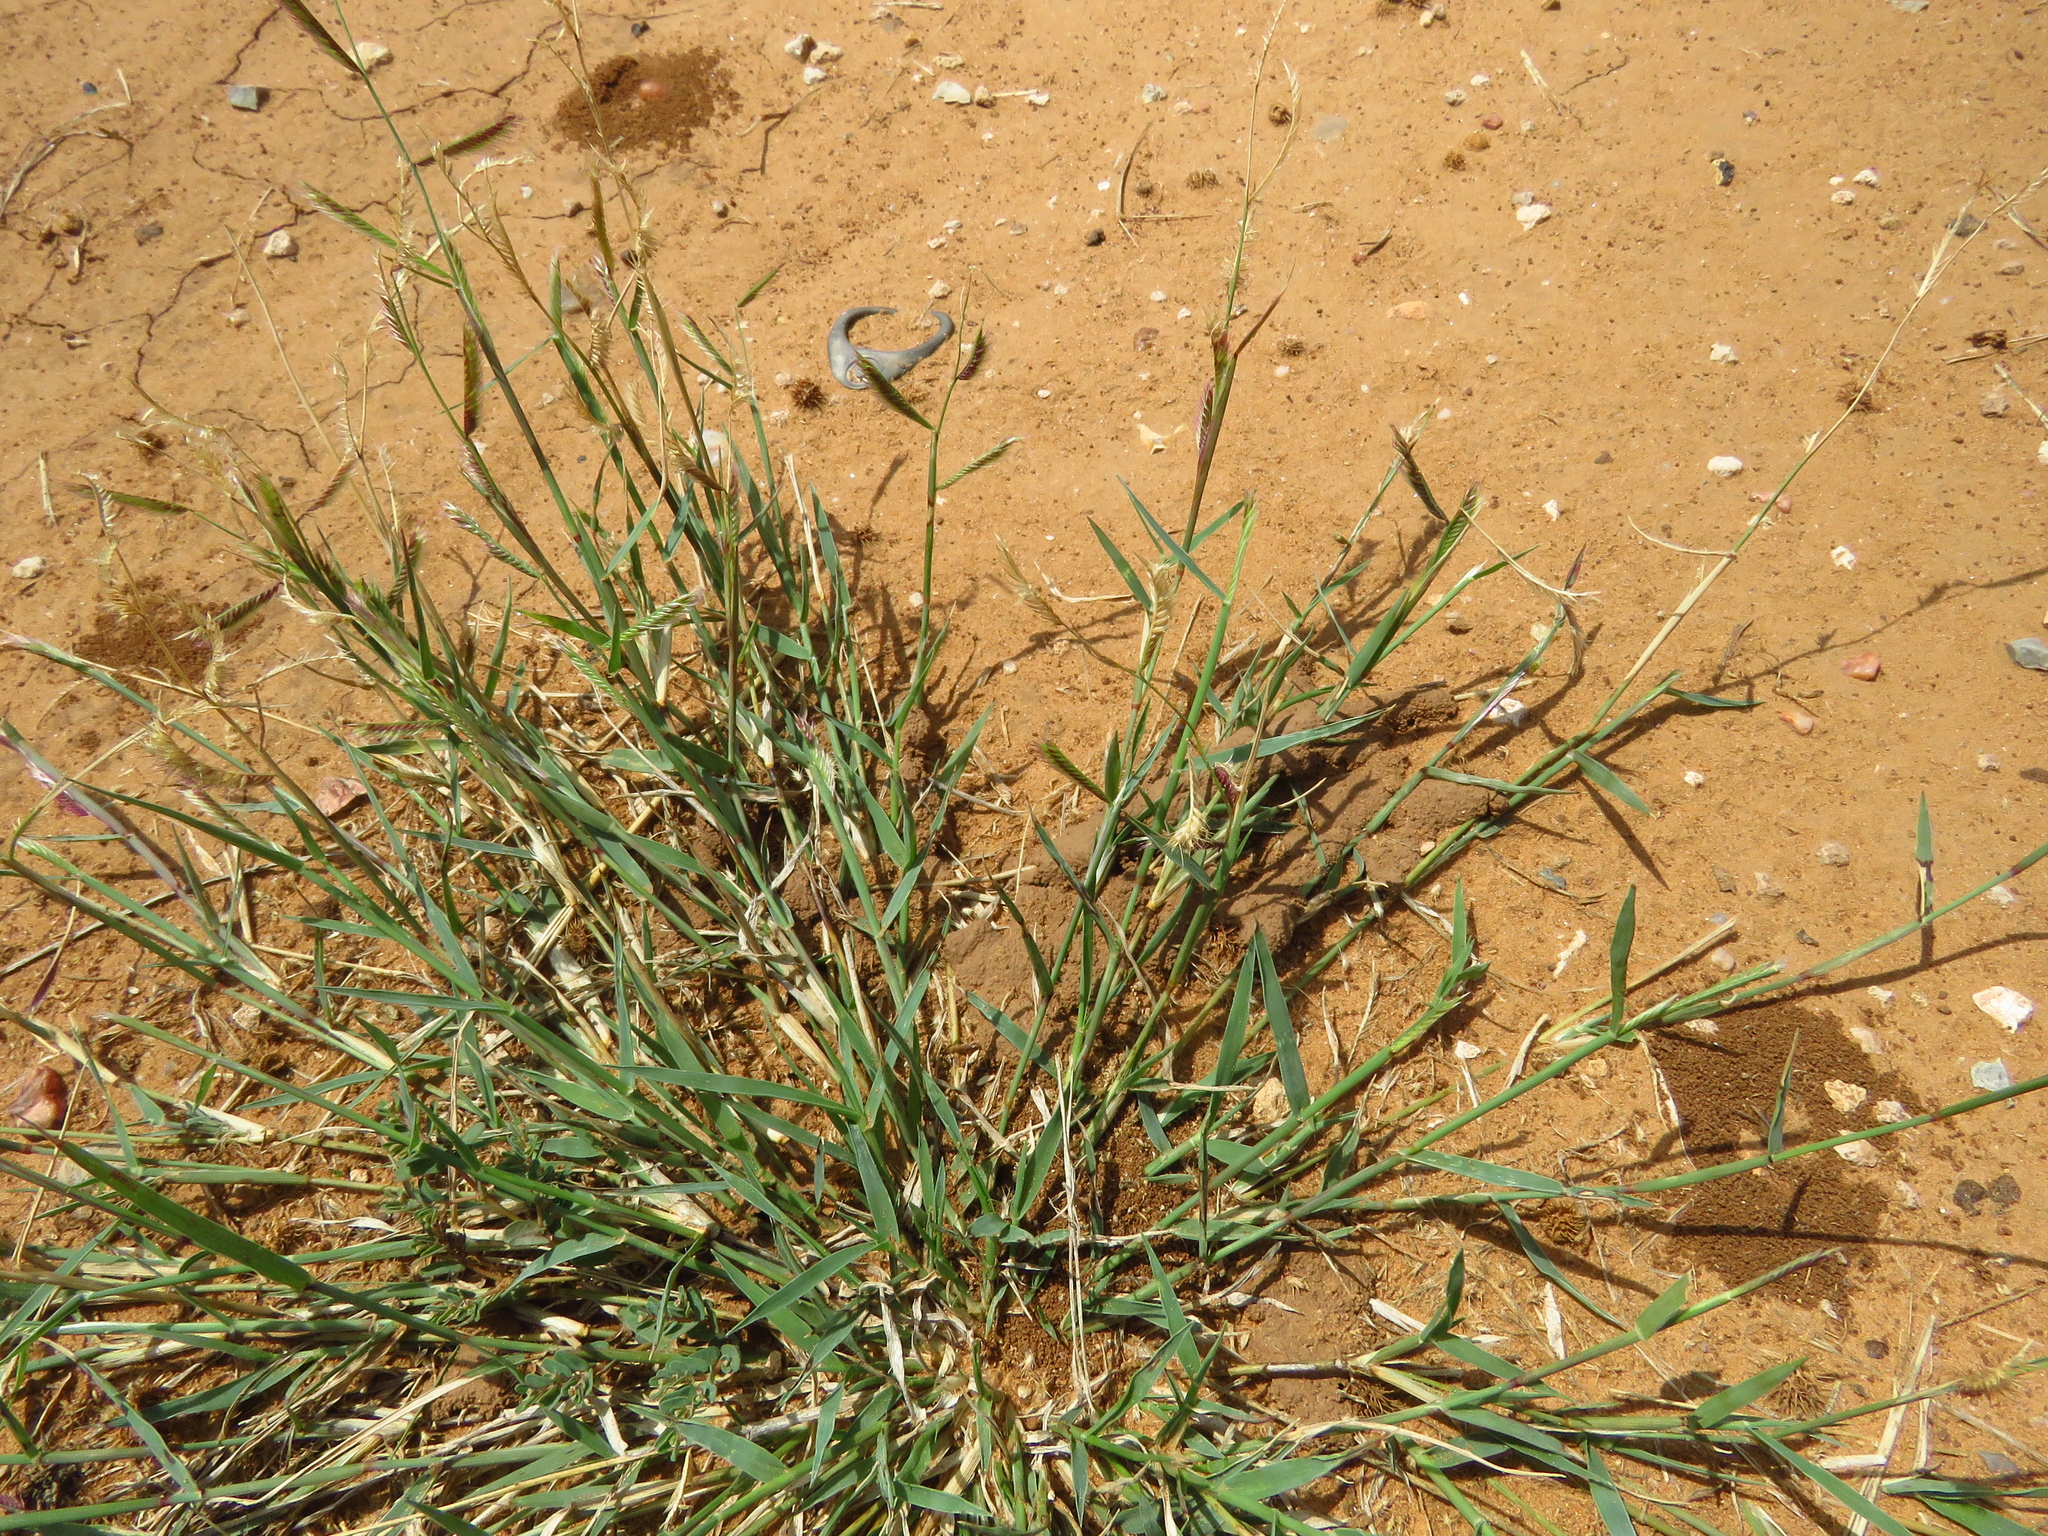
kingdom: Plantae
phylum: Tracheophyta
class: Liliopsida
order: Poales
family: Poaceae
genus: Bouteloua
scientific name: Bouteloua trifida
